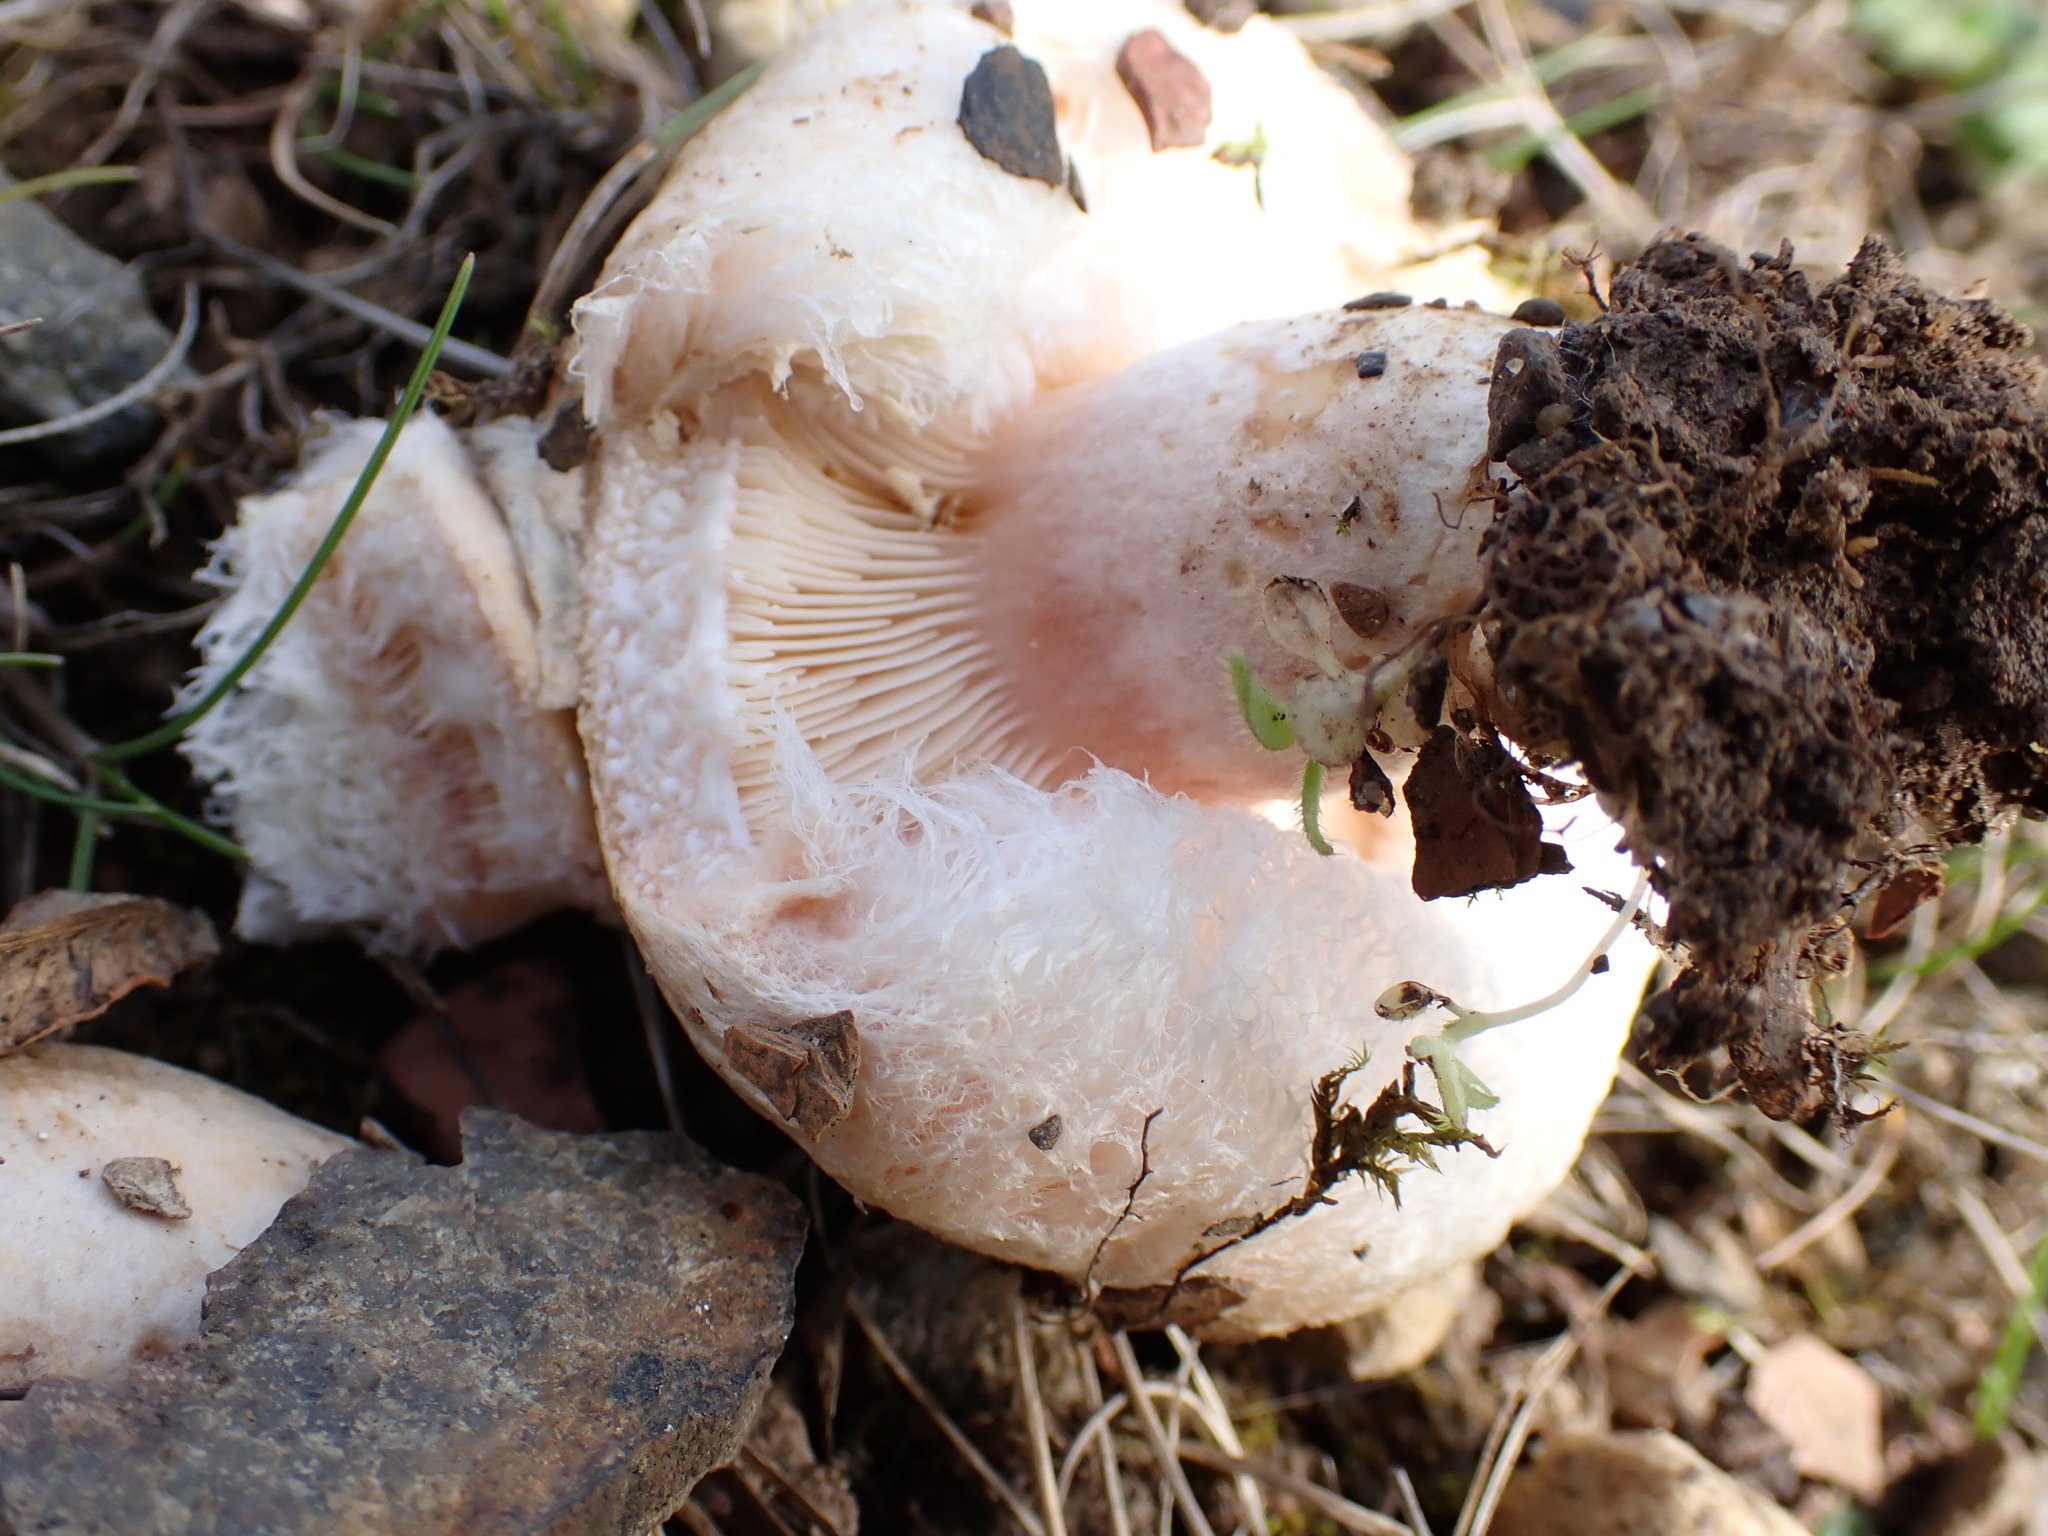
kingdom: Fungi
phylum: Basidiomycota
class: Agaricomycetes
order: Russulales
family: Russulaceae
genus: Lactarius
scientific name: Lactarius pubescens
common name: Bearded milkcap
